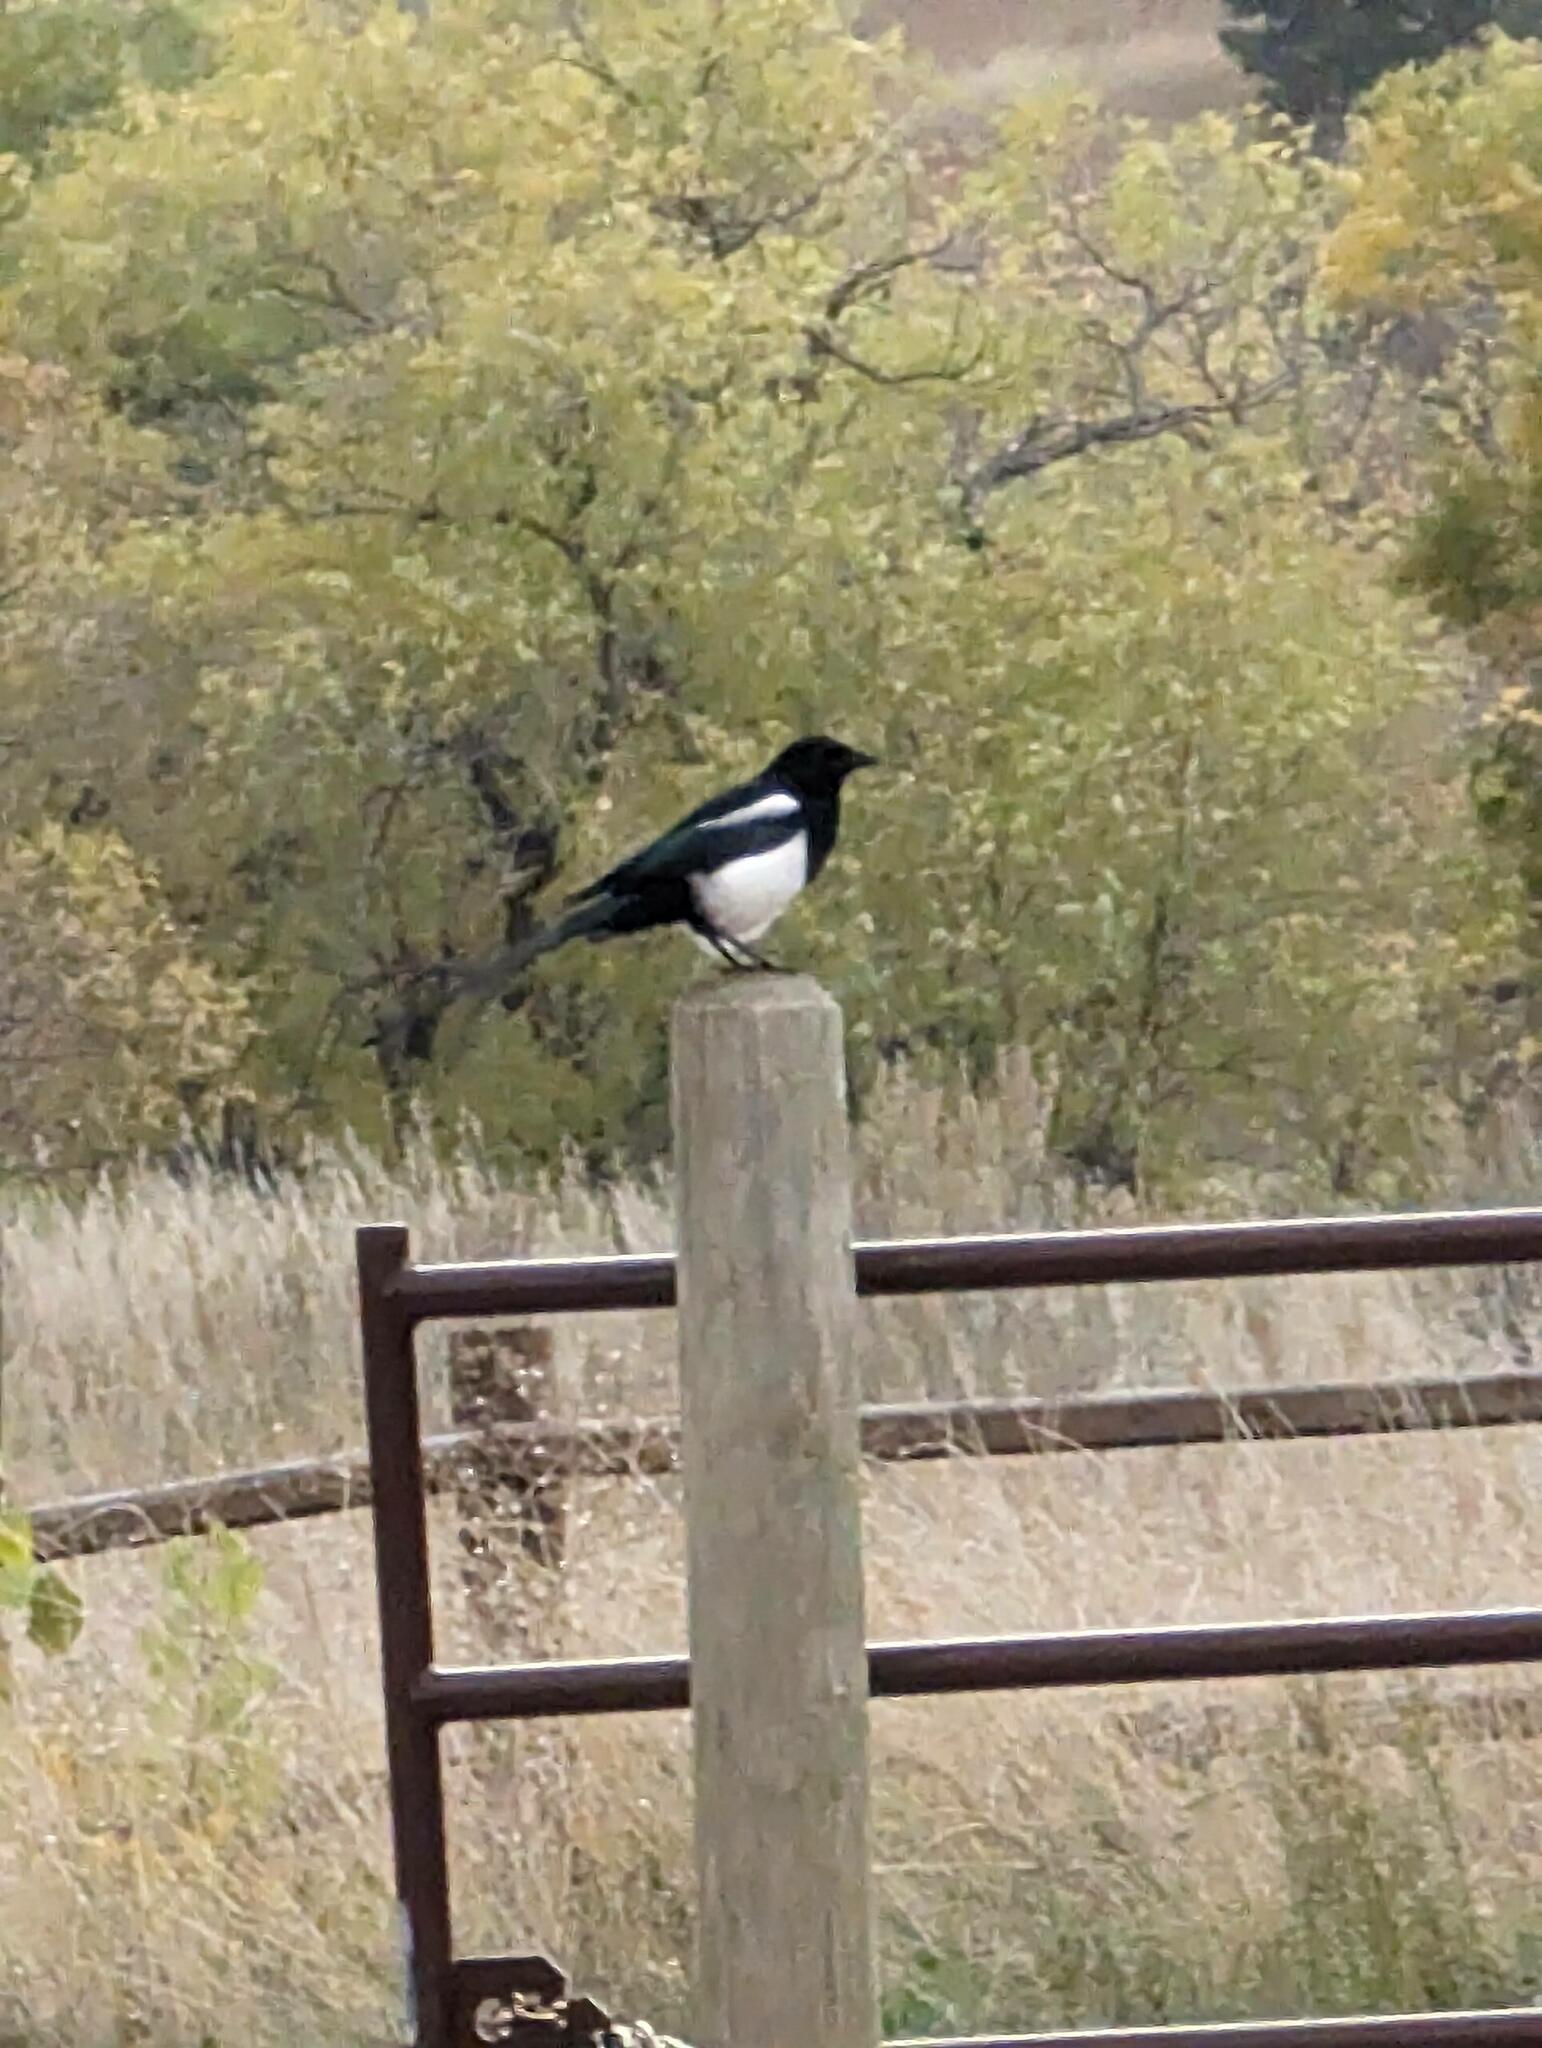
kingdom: Animalia
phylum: Chordata
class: Aves
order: Passeriformes
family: Corvidae
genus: Pica
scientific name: Pica hudsonia
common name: Black-billed magpie
